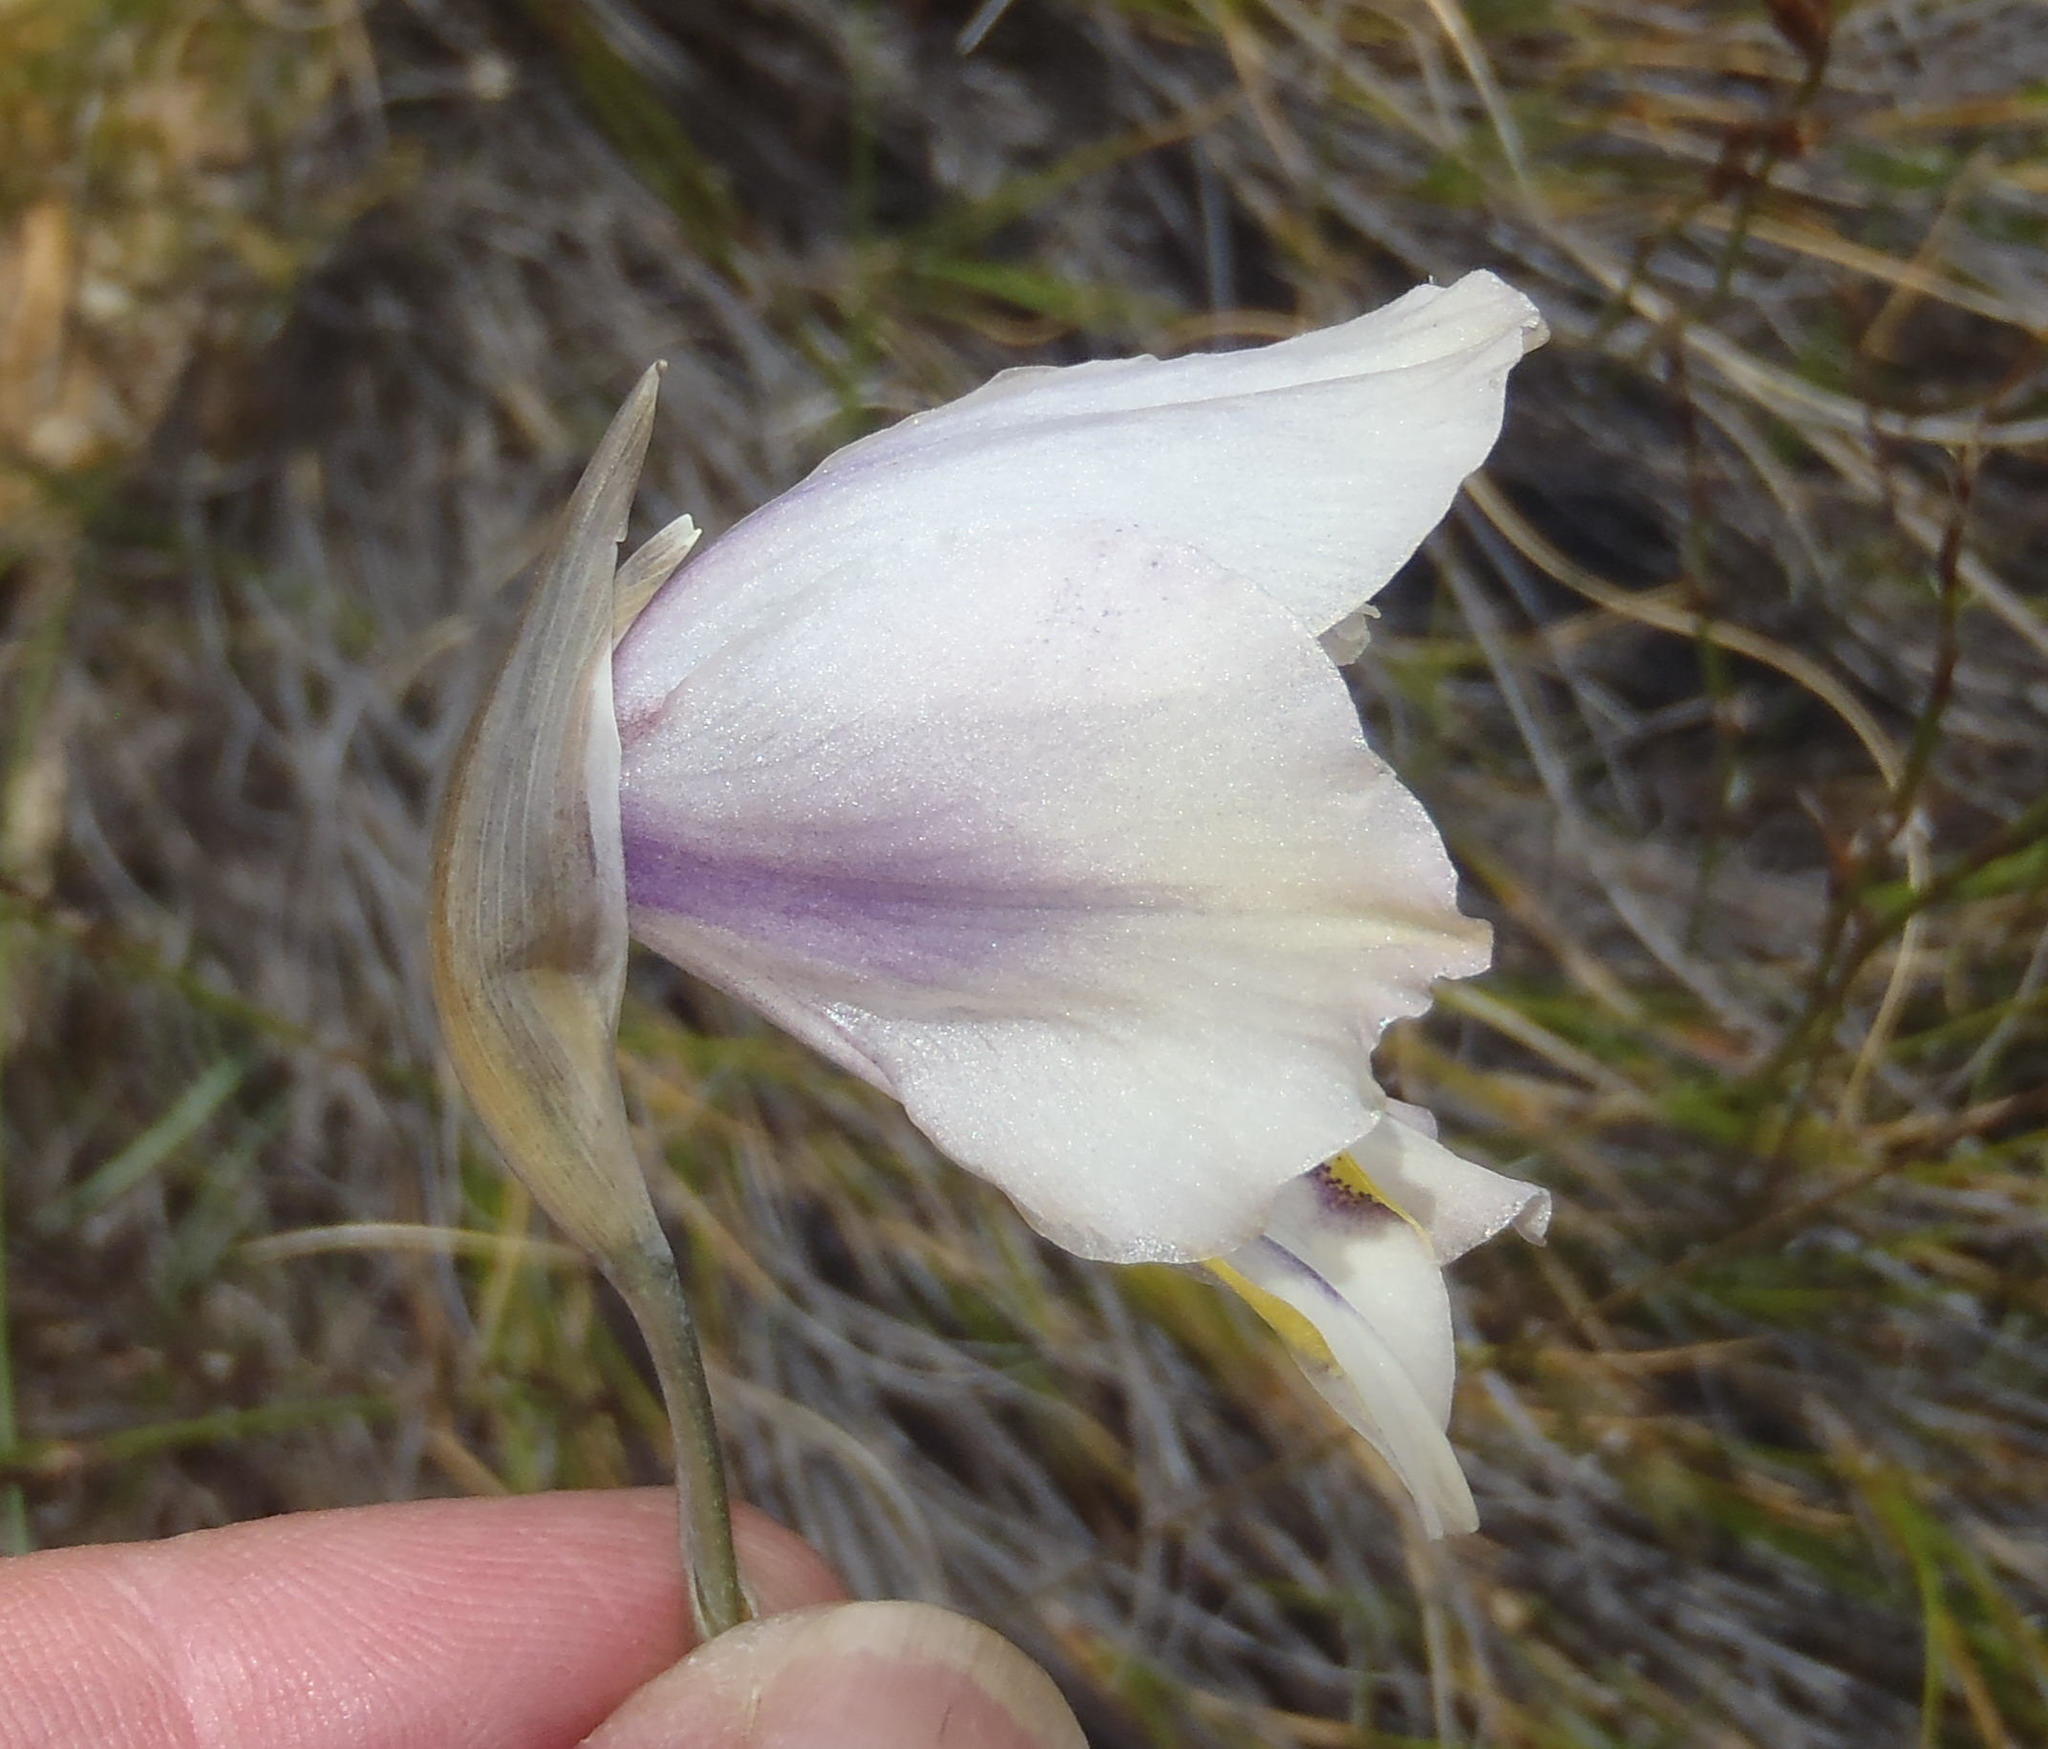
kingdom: Plantae
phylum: Tracheophyta
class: Liliopsida
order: Asparagales
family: Iridaceae
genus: Gladiolus
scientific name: Gladiolus patersoniae
